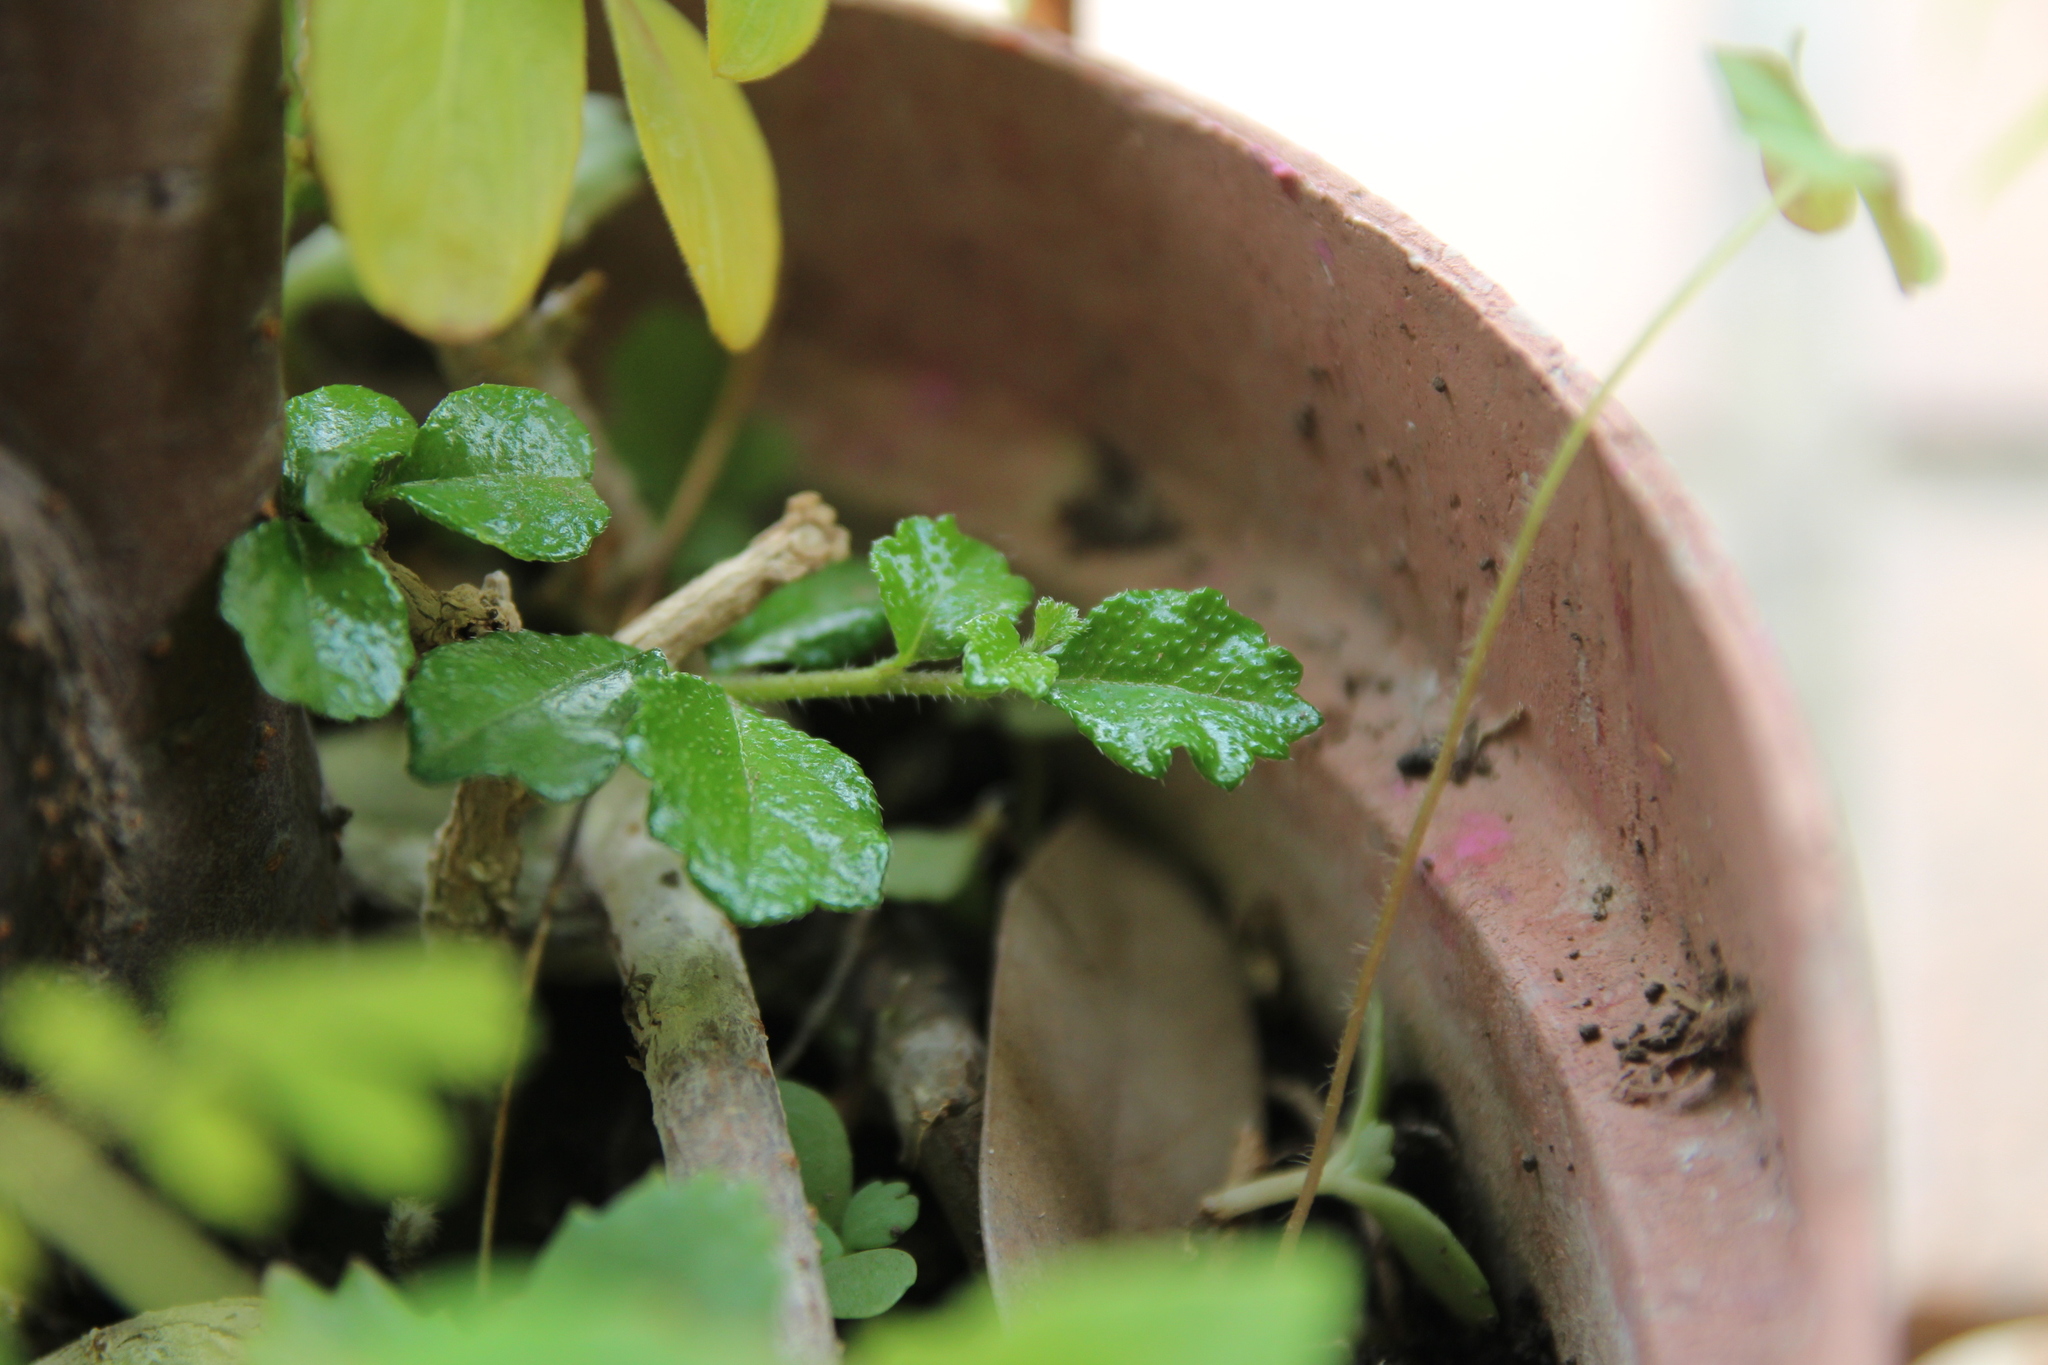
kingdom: Plantae
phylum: Tracheophyta
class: Magnoliopsida
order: Boraginales
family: Ehretiaceae
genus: Ehretia
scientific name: Ehretia microphylla
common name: Fukien-tea
